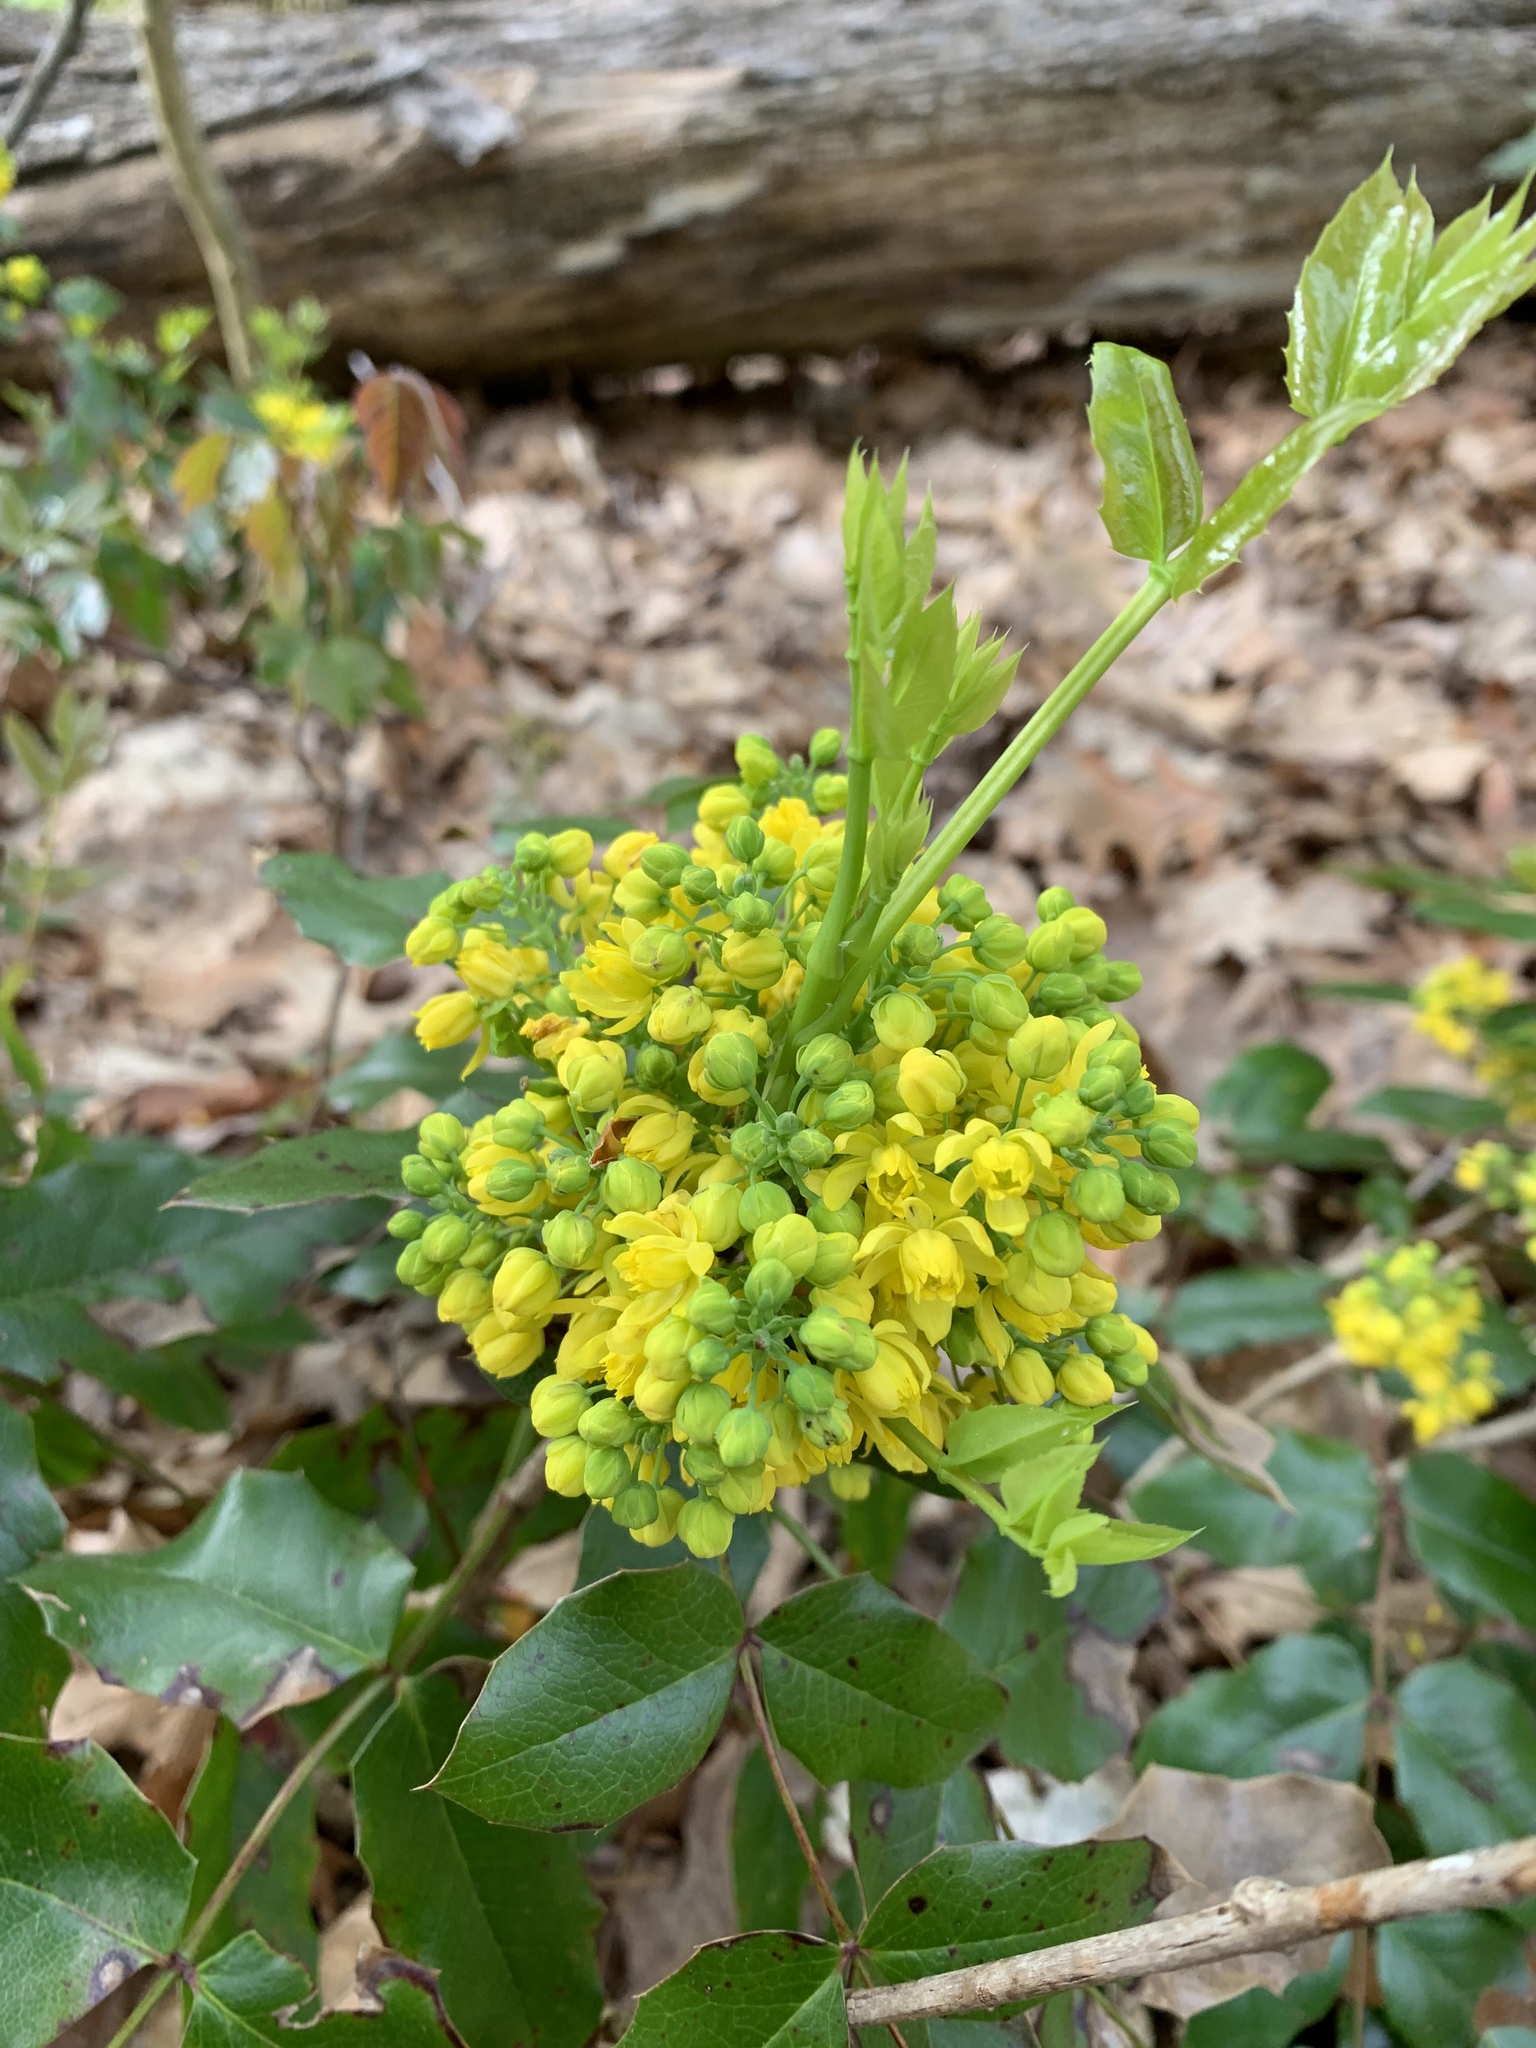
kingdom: Plantae
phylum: Tracheophyta
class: Magnoliopsida
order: Ranunculales
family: Berberidaceae
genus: Mahonia
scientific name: Mahonia aquifolium
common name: Oregon-grape
